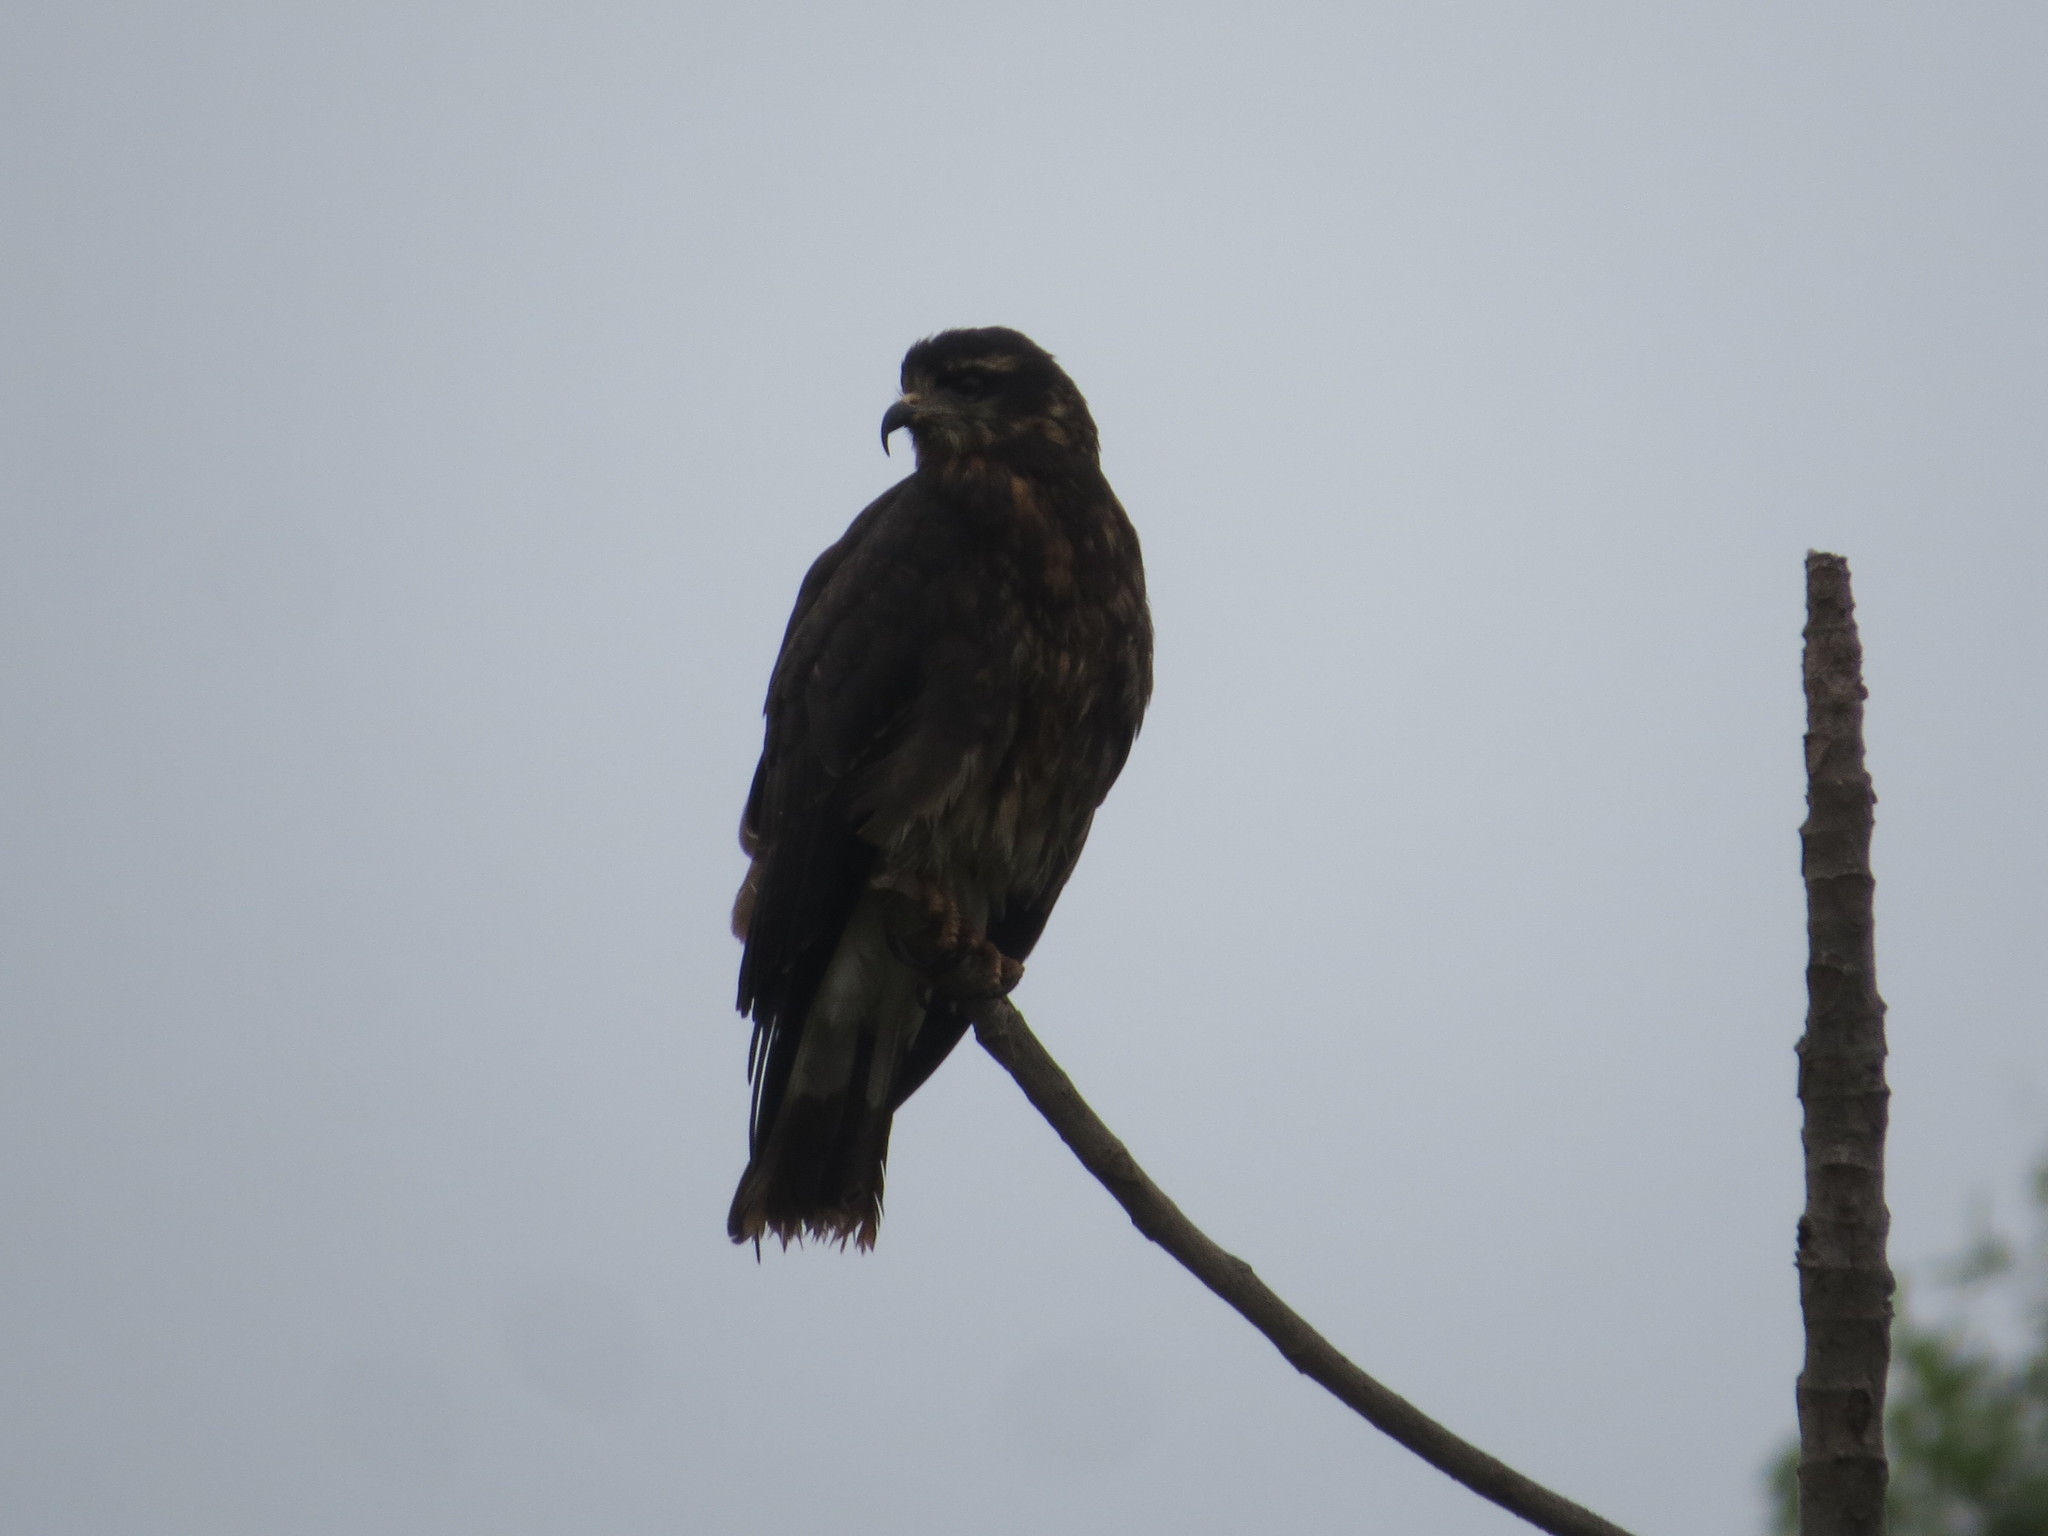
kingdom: Animalia
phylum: Chordata
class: Aves
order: Accipitriformes
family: Accipitridae
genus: Rostrhamus
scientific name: Rostrhamus sociabilis
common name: Snail kite
